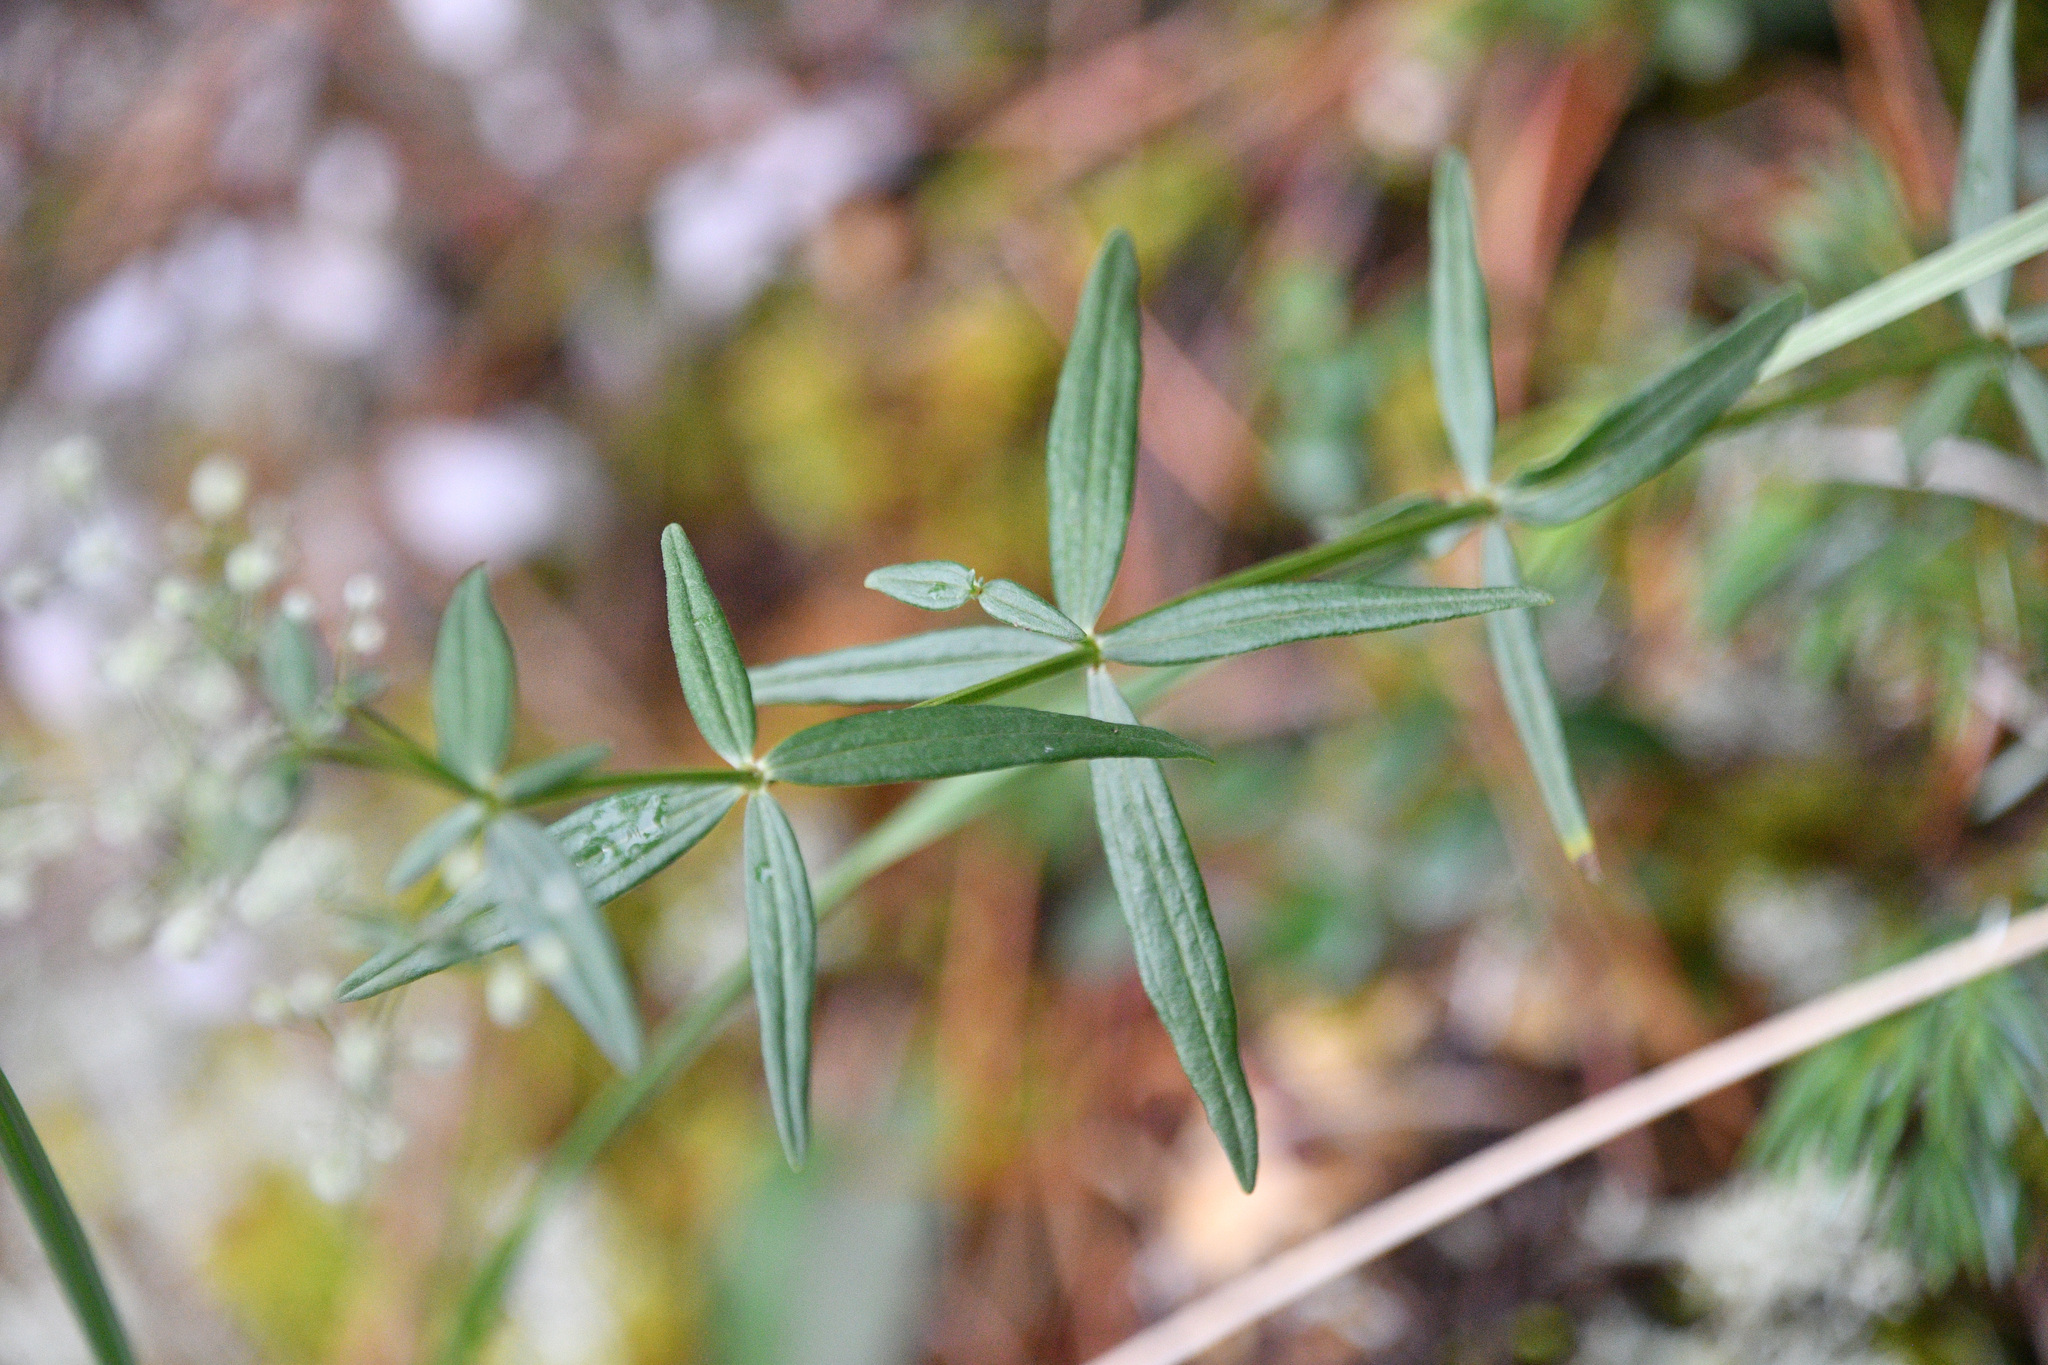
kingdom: Plantae
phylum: Tracheophyta
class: Magnoliopsida
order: Gentianales
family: Rubiaceae
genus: Galium
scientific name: Galium boreale
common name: Northern bedstraw
